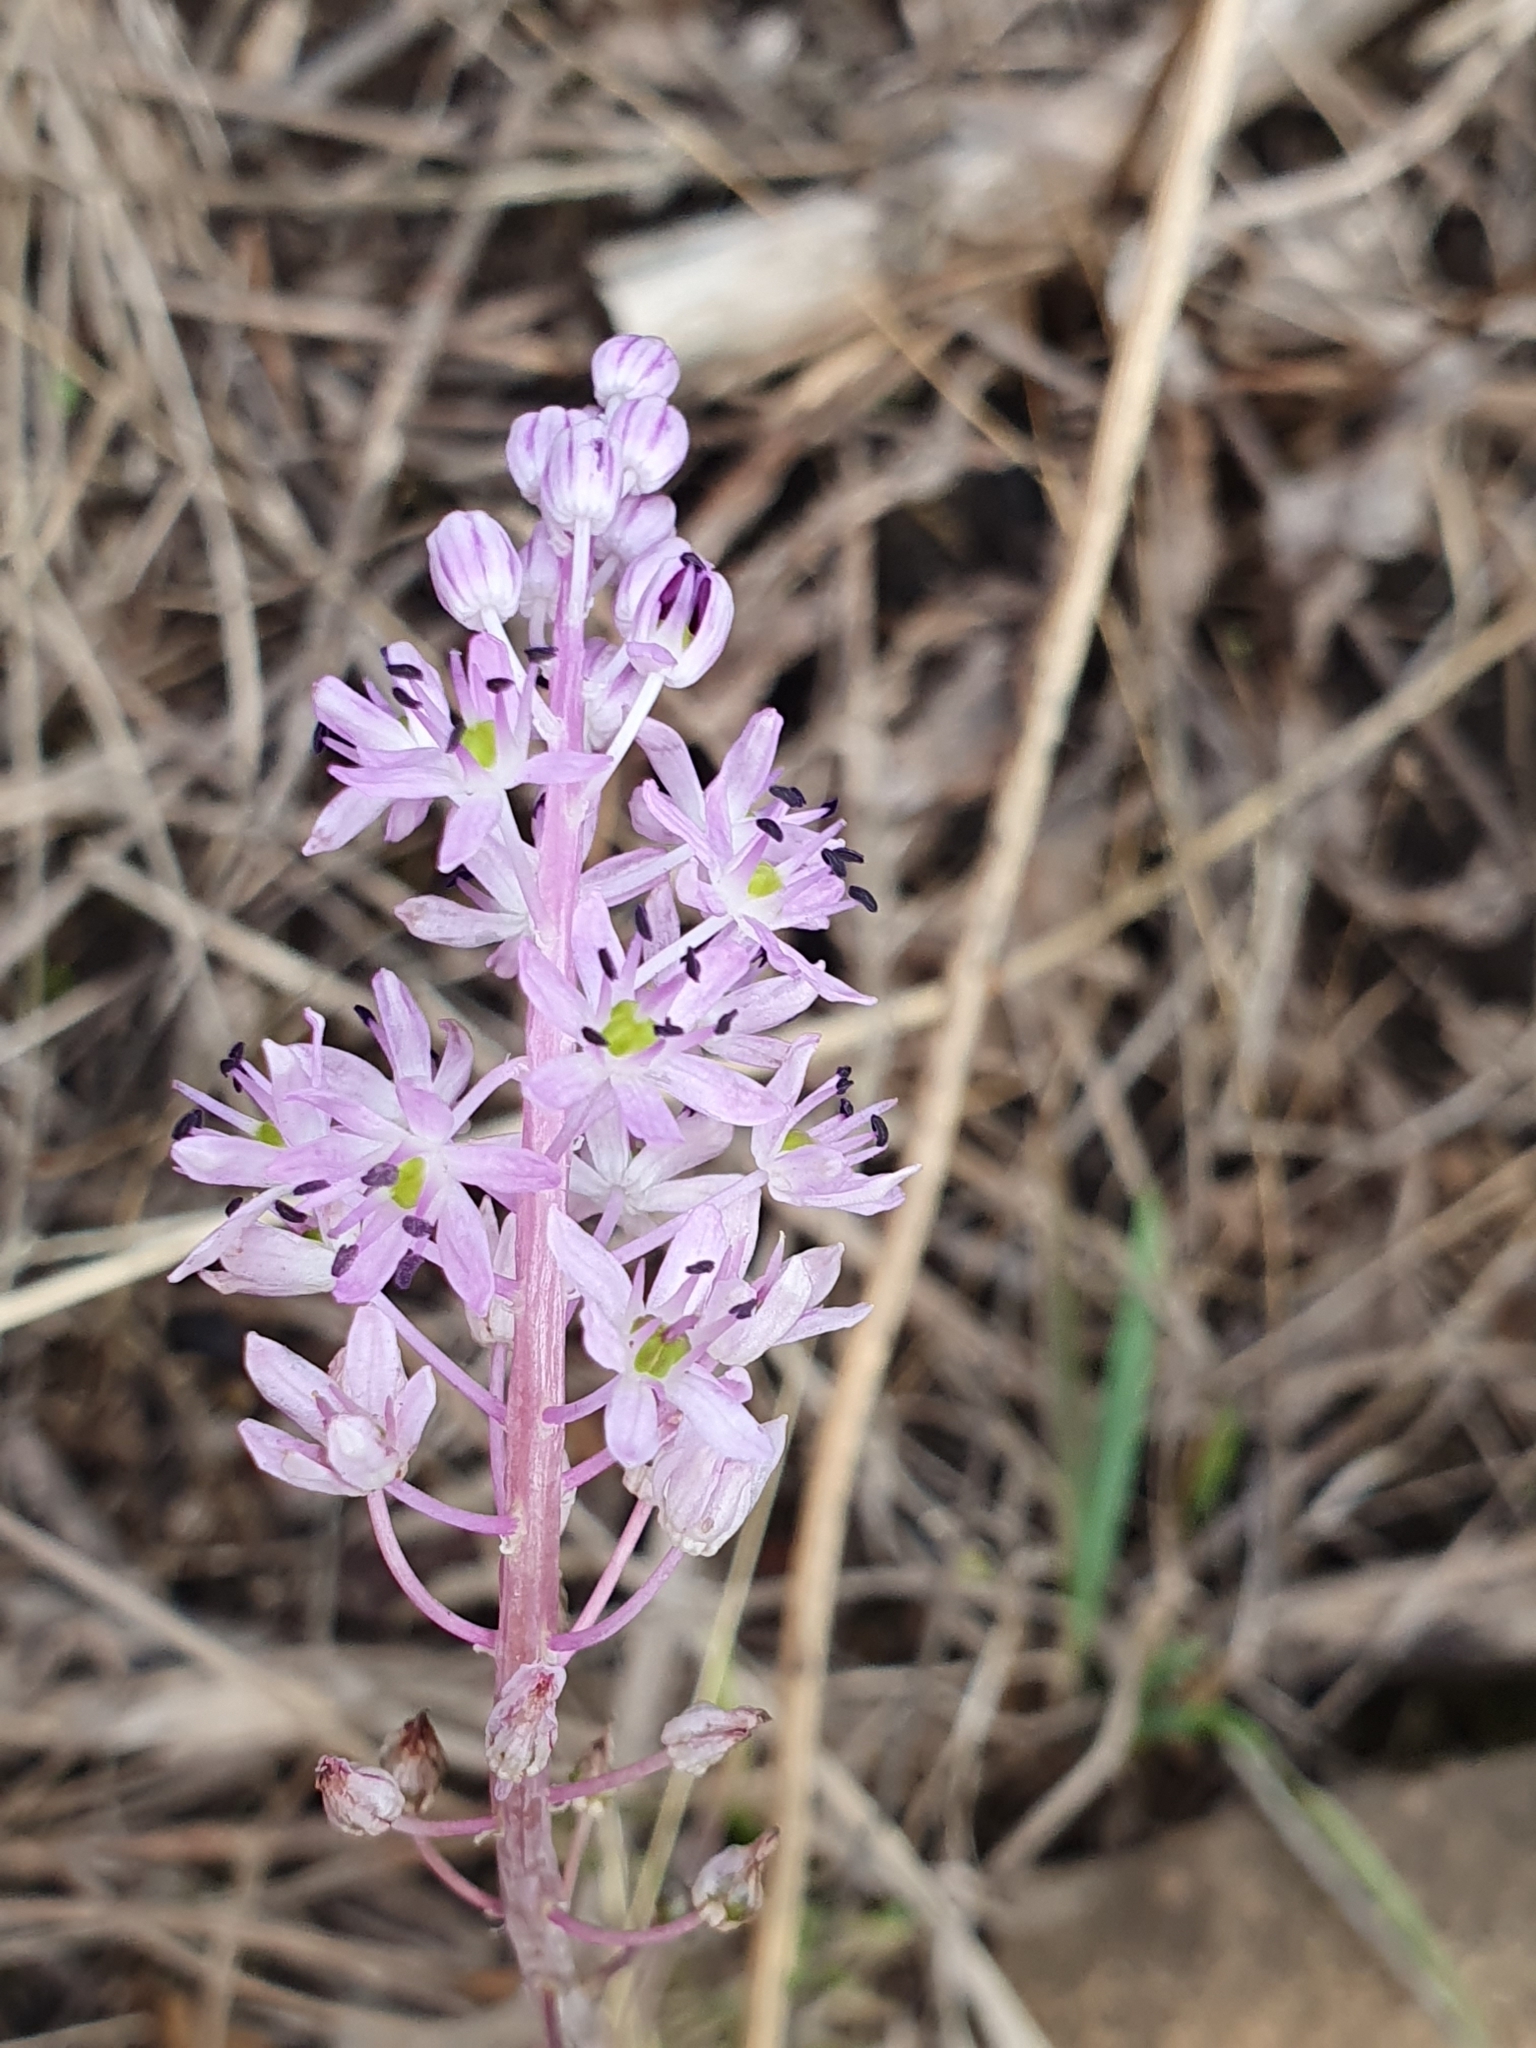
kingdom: Plantae
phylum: Tracheophyta
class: Liliopsida
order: Asparagales
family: Asparagaceae
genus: Barnardia
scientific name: Barnardia numidica
